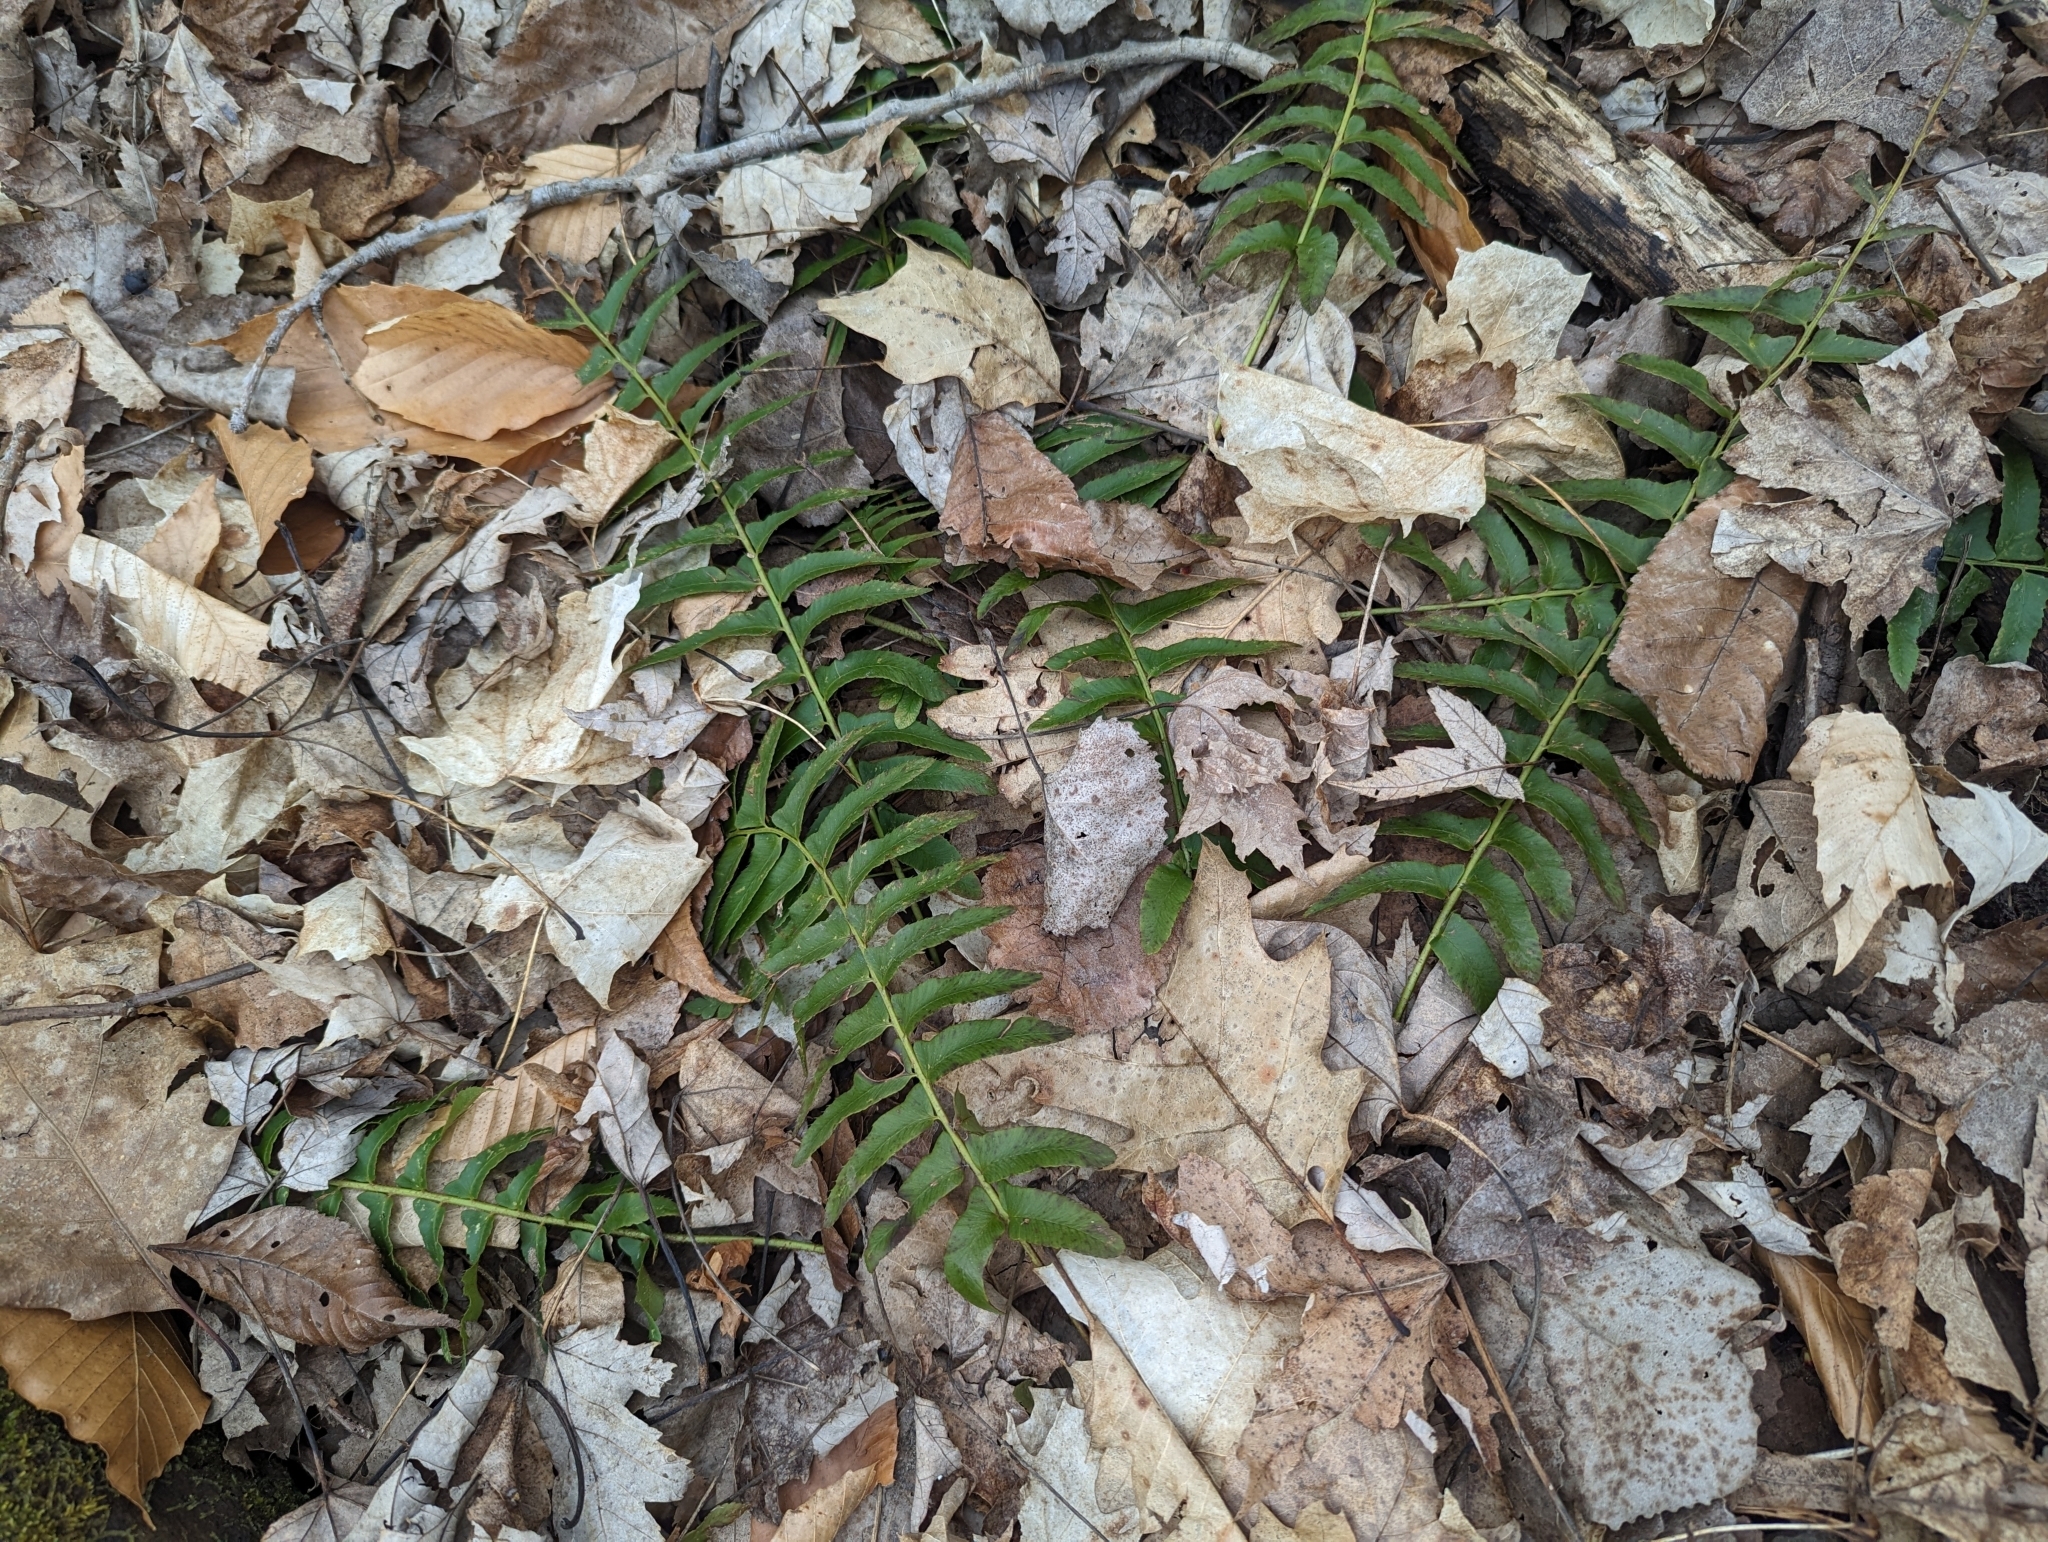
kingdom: Plantae
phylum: Tracheophyta
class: Polypodiopsida
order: Polypodiales
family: Dryopteridaceae
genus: Polystichum
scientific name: Polystichum acrostichoides
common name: Christmas fern
